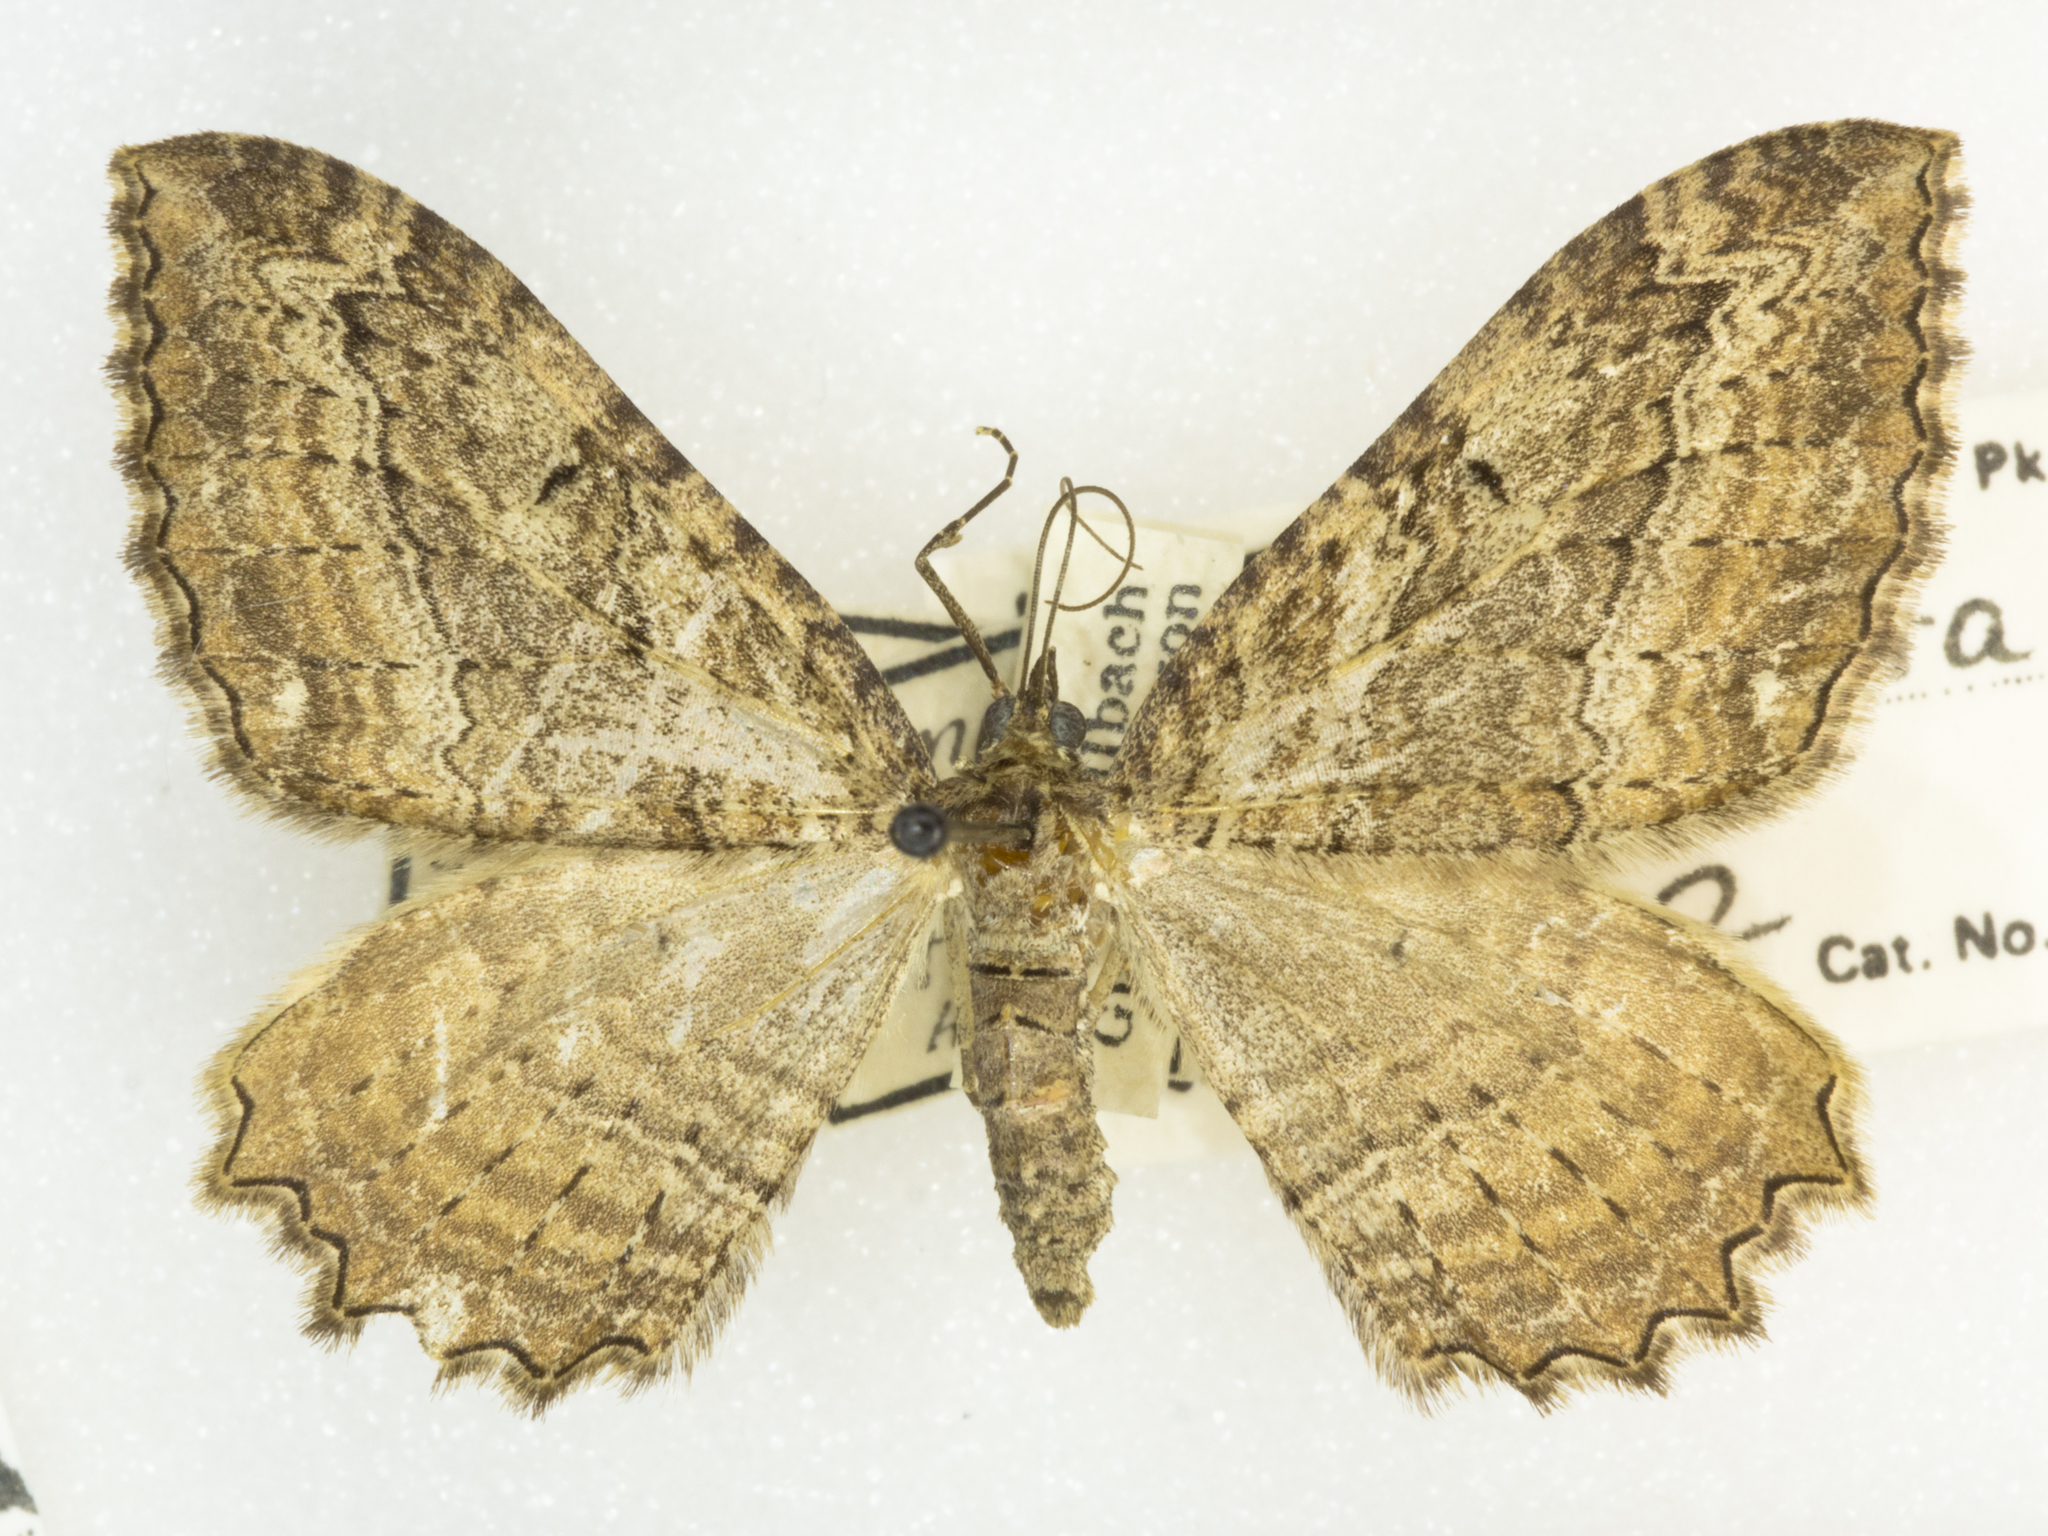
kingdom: Animalia
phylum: Arthropoda
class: Insecta
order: Lepidoptera
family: Geometridae
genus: Rheumaptera
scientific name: Rheumaptera
